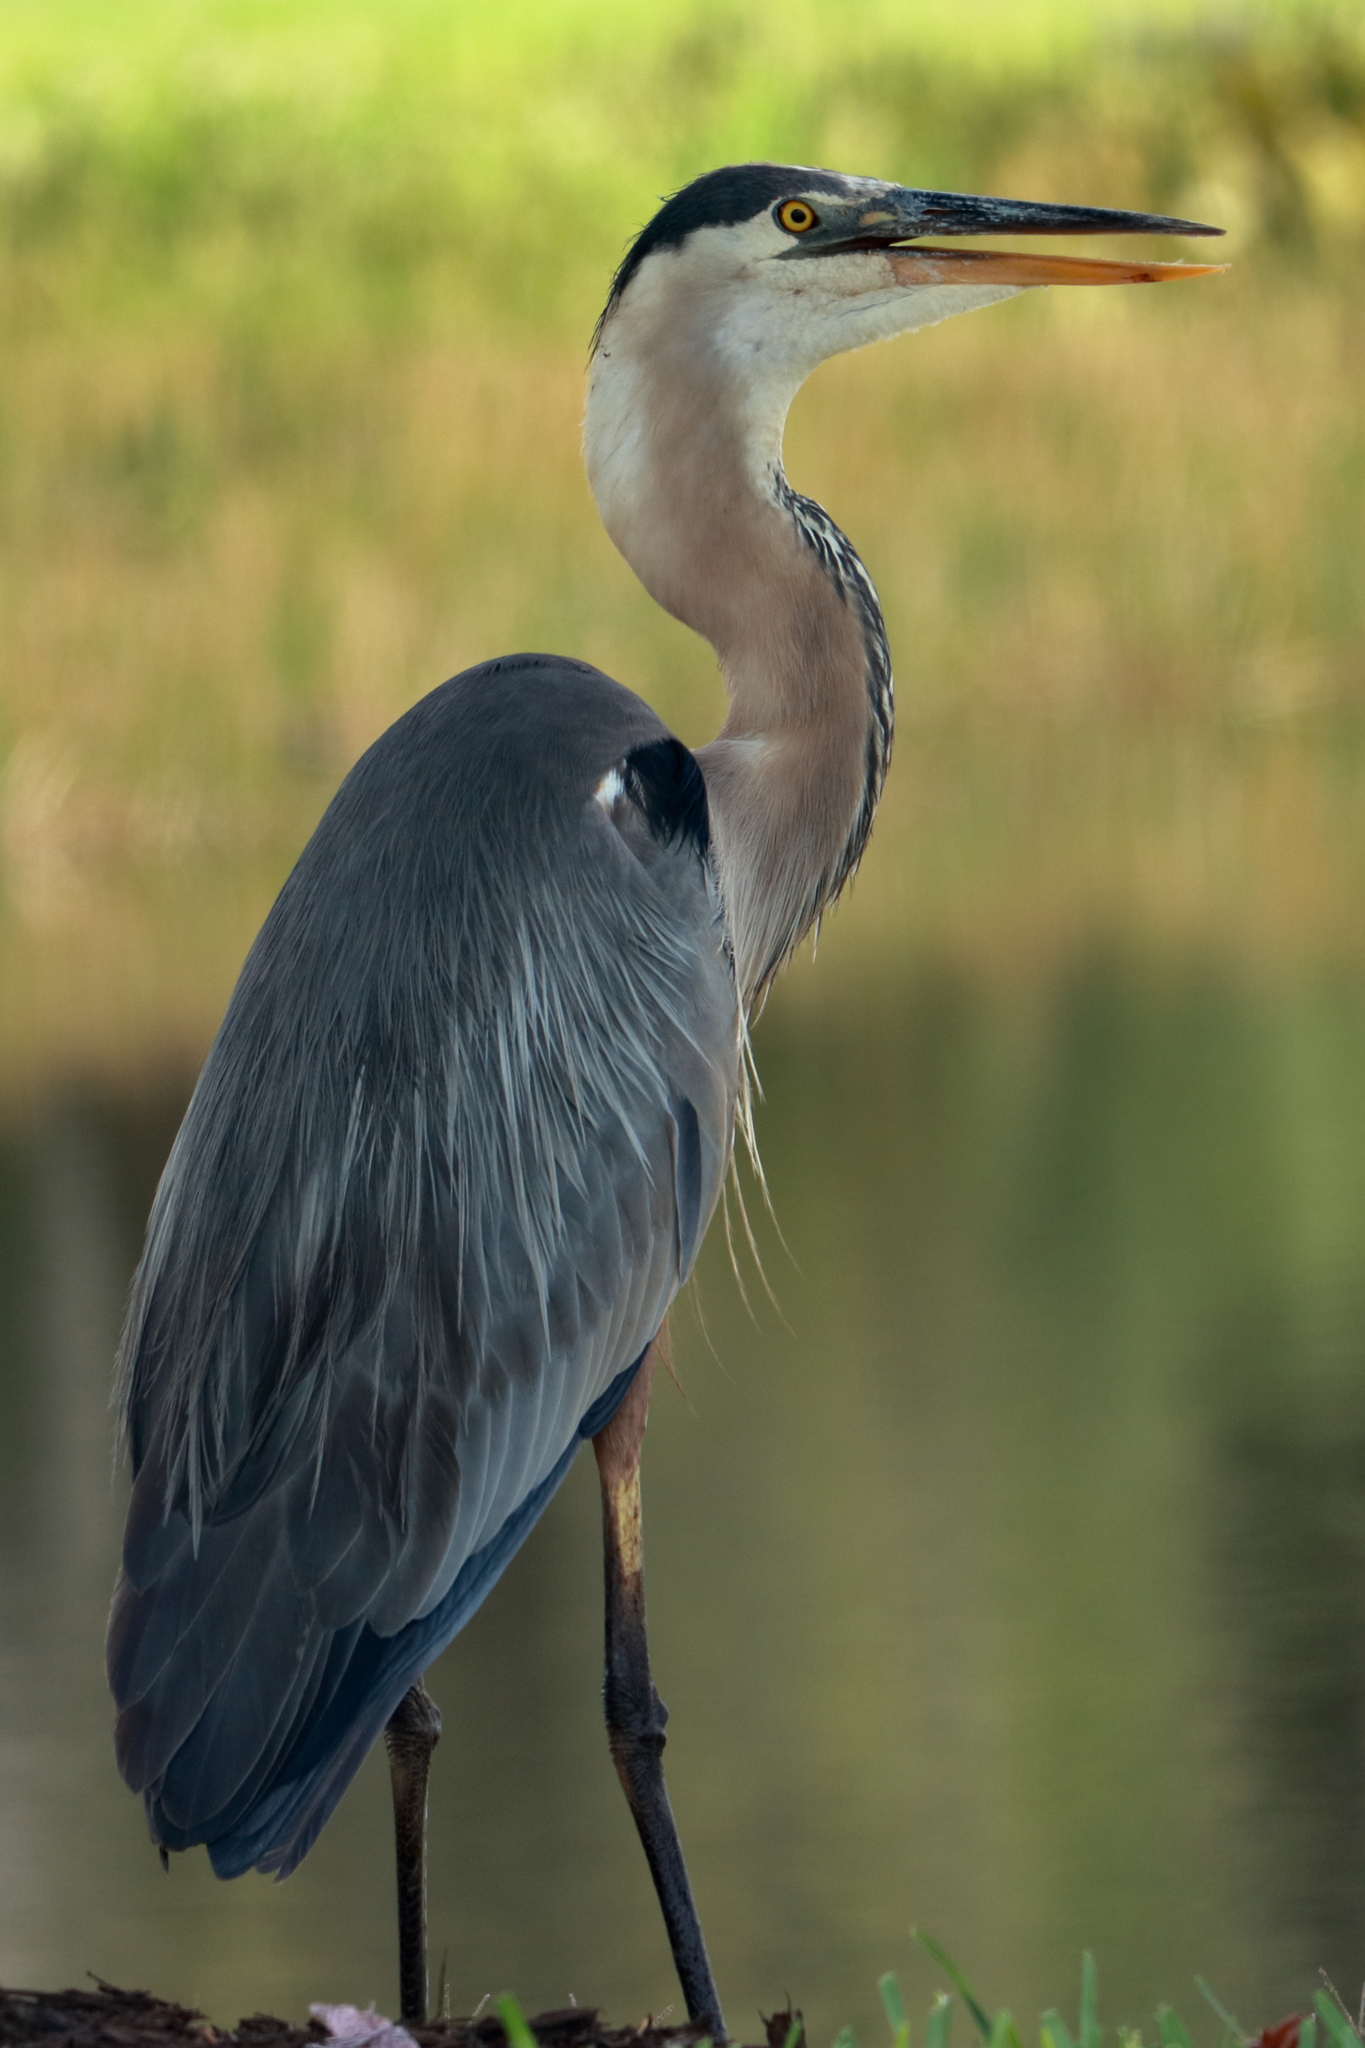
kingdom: Animalia
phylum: Chordata
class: Aves
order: Pelecaniformes
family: Ardeidae
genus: Ardea
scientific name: Ardea herodias
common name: Great blue heron
